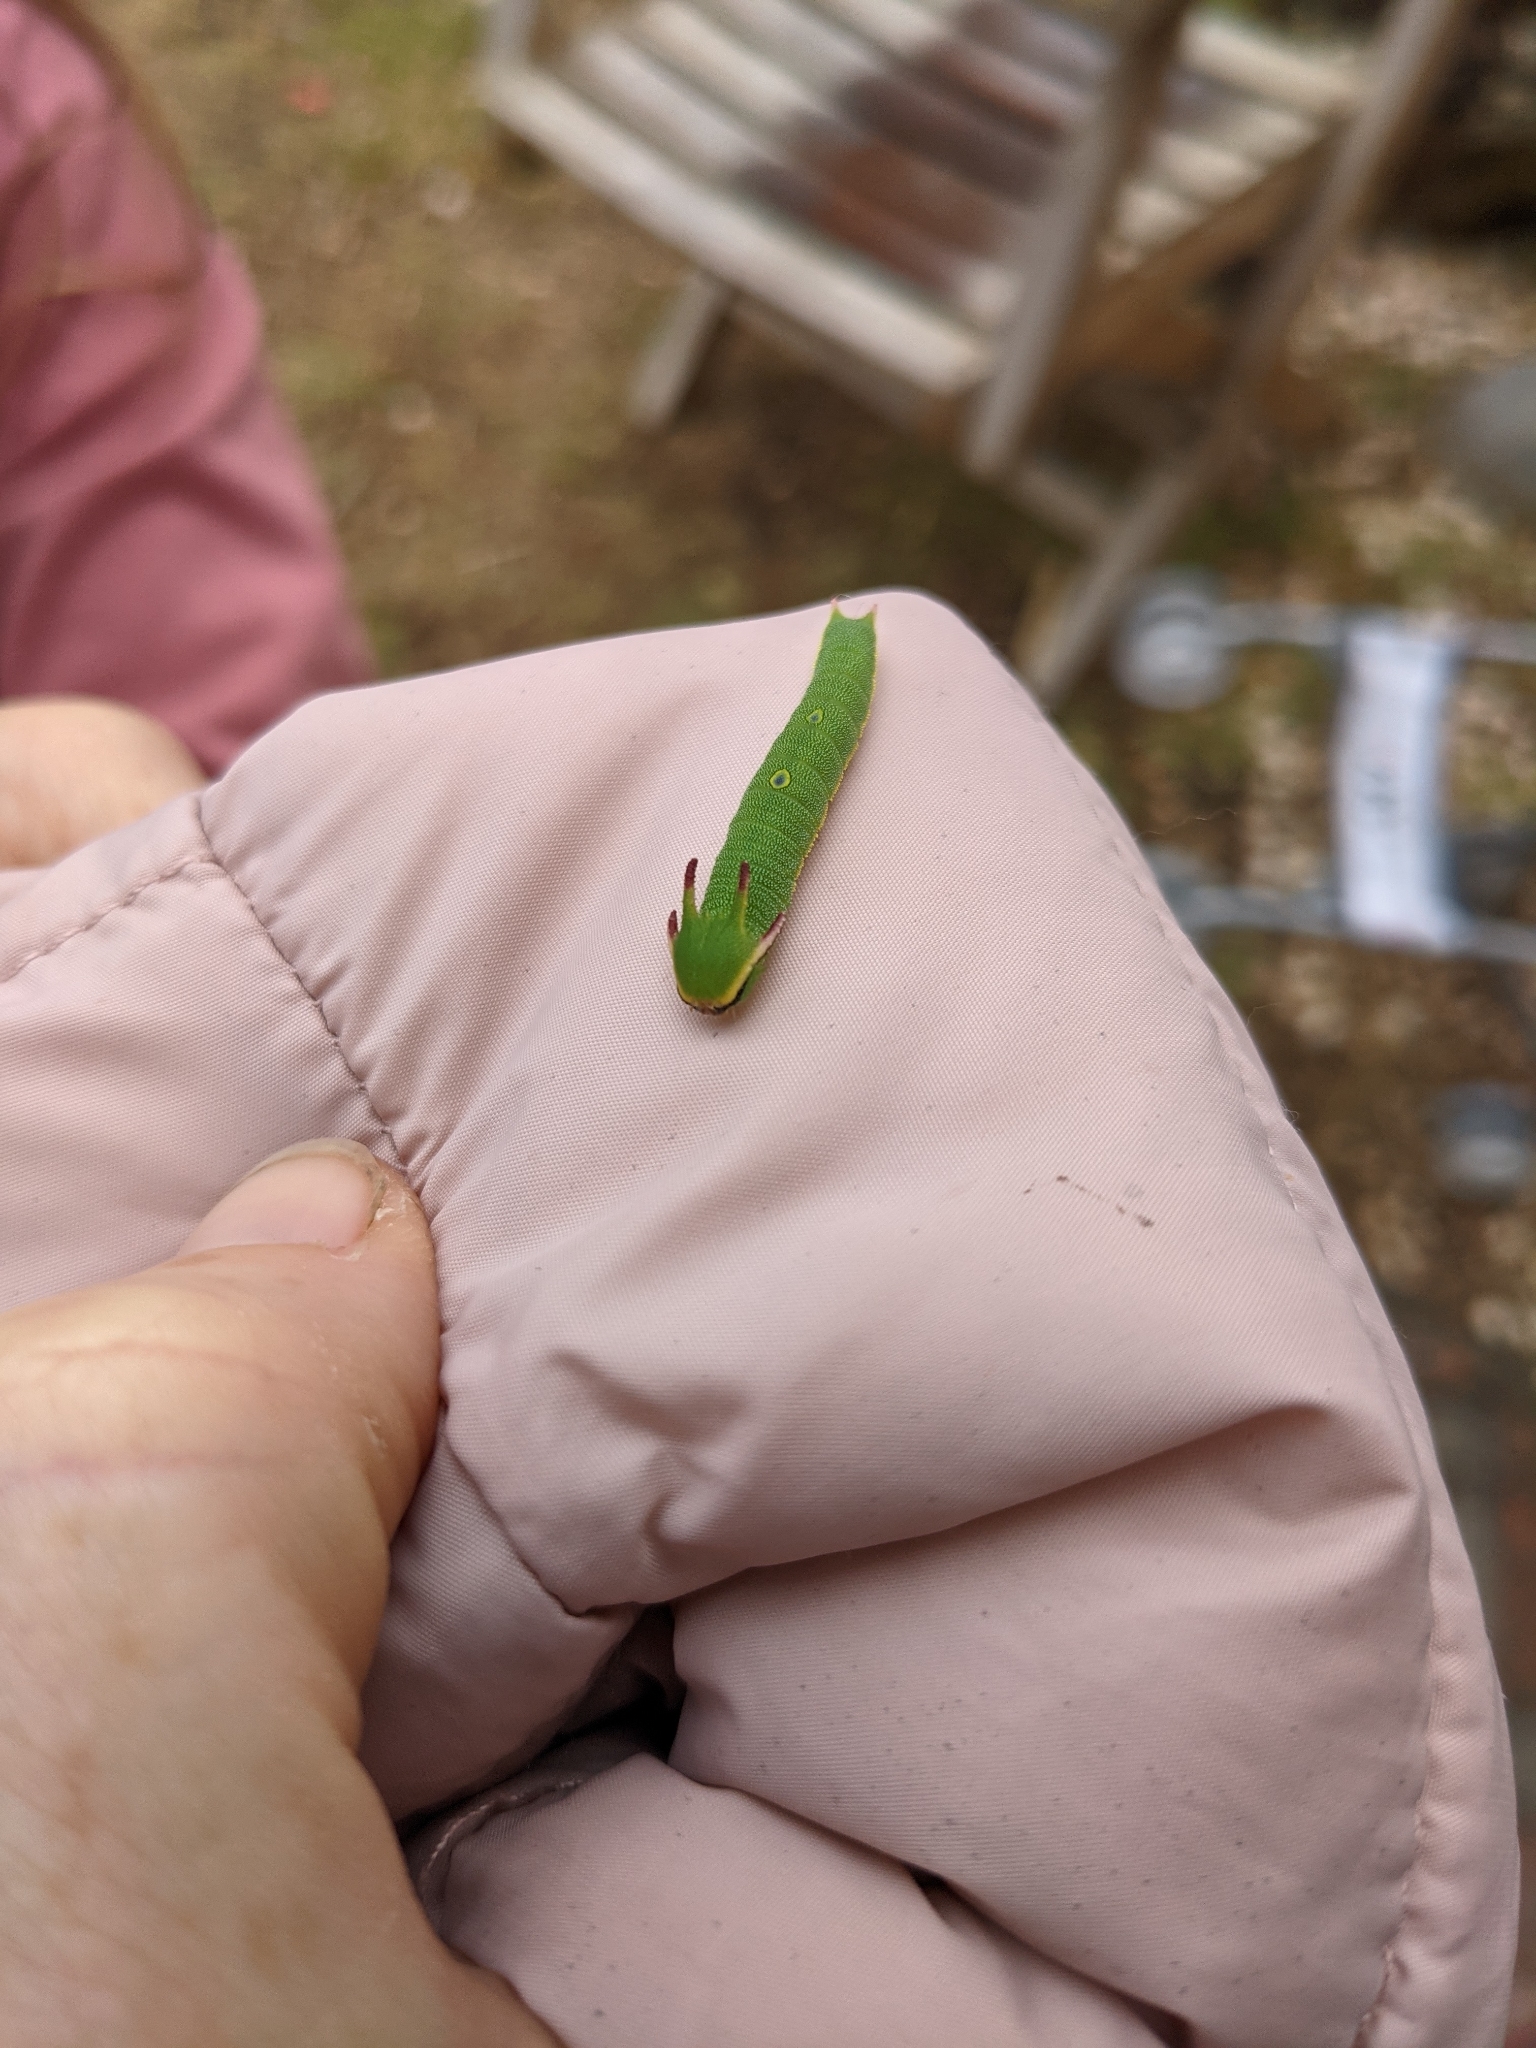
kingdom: Animalia
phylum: Arthropoda
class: Insecta
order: Lepidoptera
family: Nymphalidae
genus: Charaxes
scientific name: Charaxes jasius
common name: Two tailed pasha
